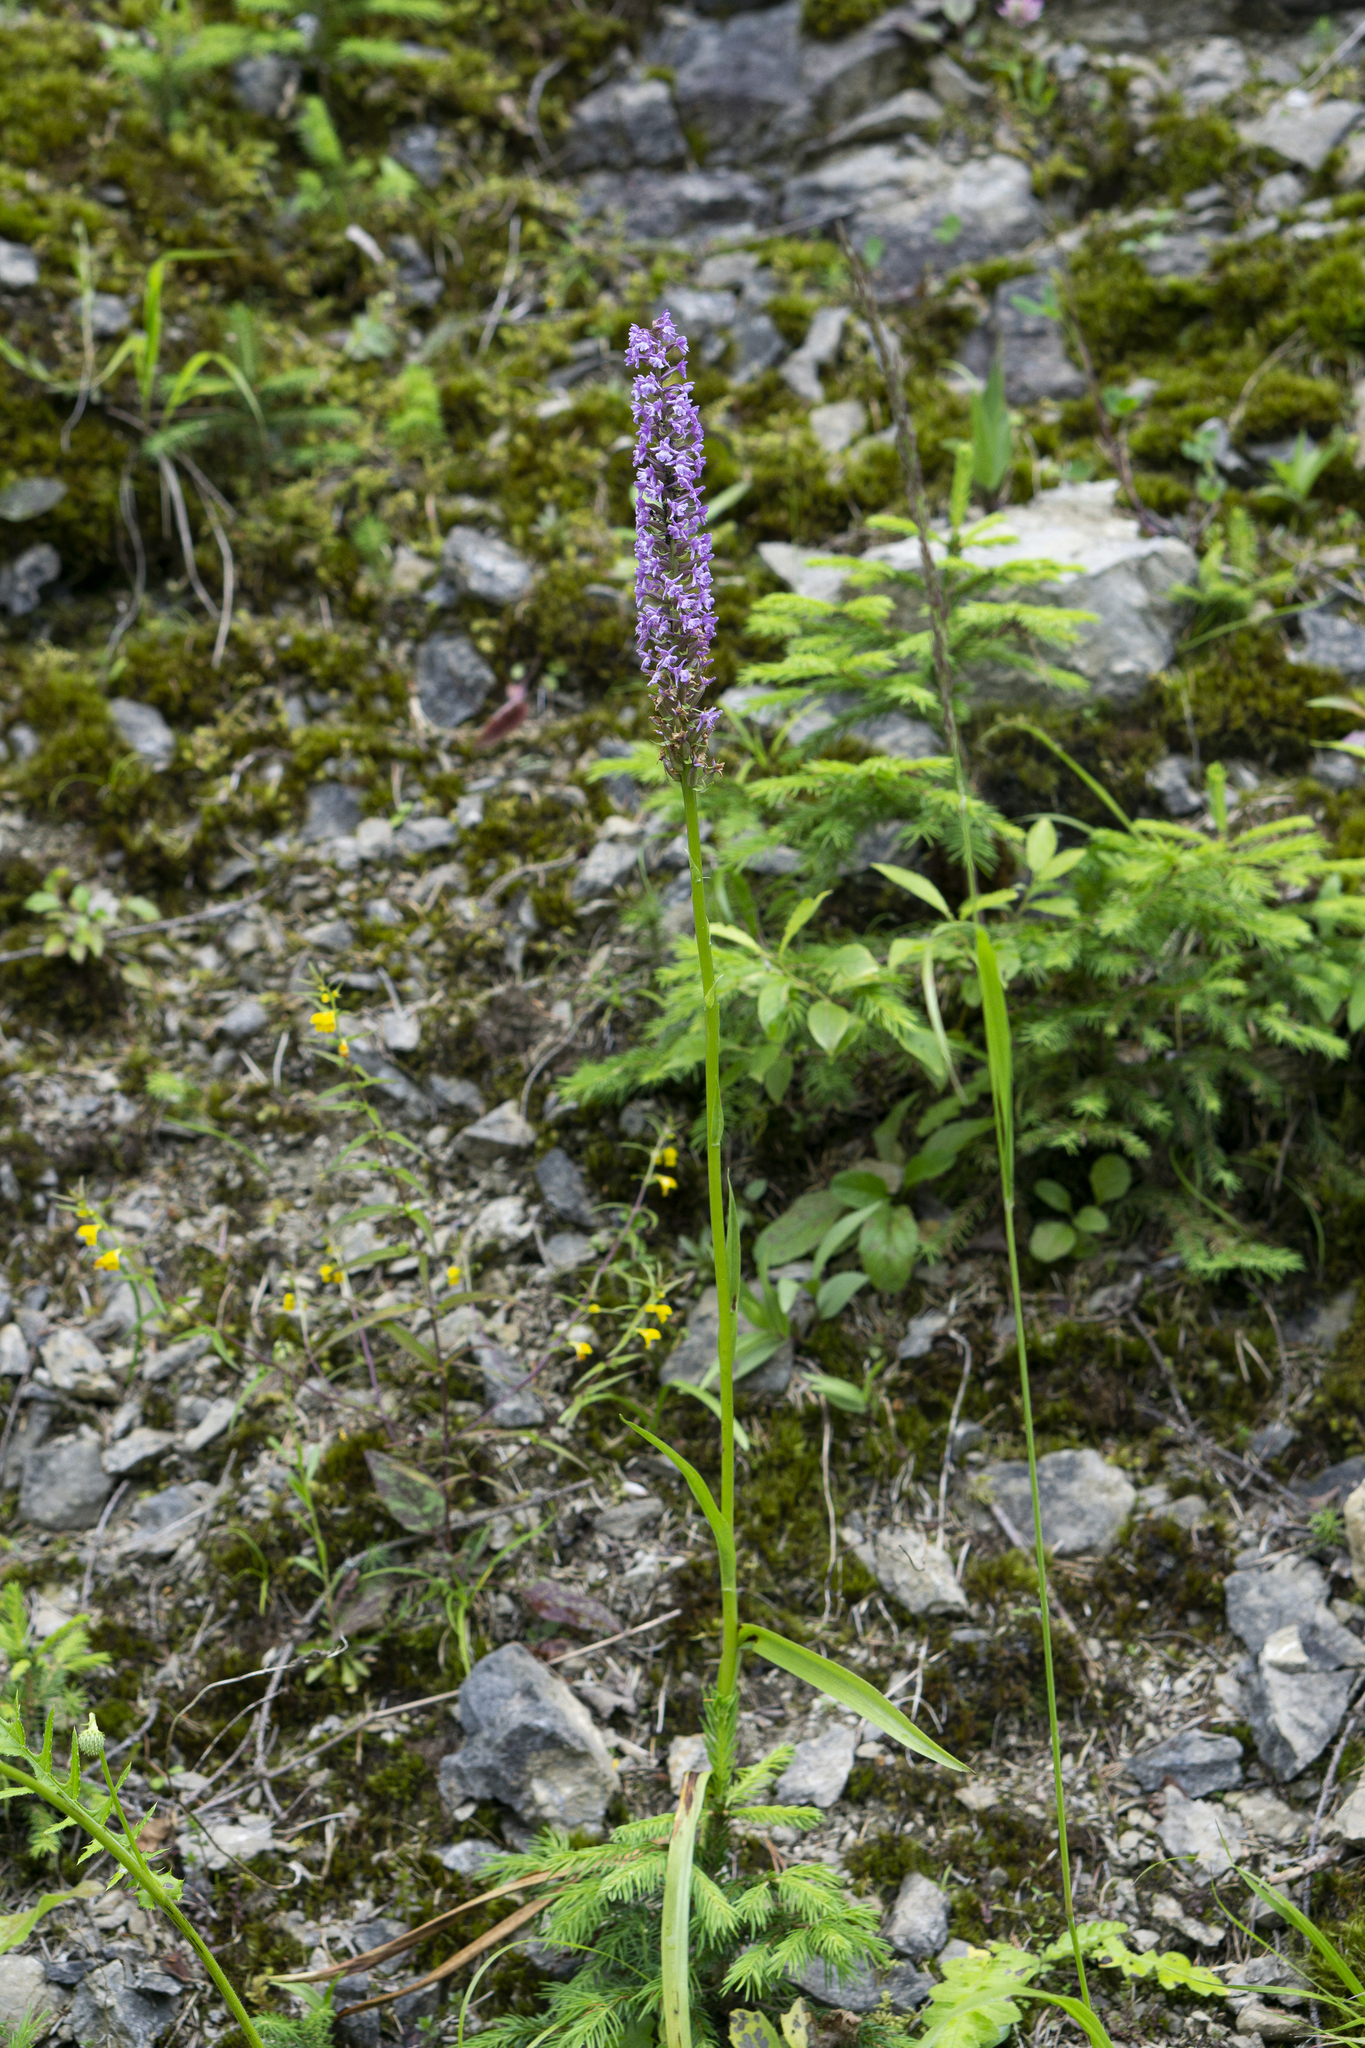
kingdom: Plantae
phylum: Tracheophyta
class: Liliopsida
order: Asparagales
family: Orchidaceae
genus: Gymnadenia
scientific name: Gymnadenia densiflora
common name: Marsh fragrant-orchid
